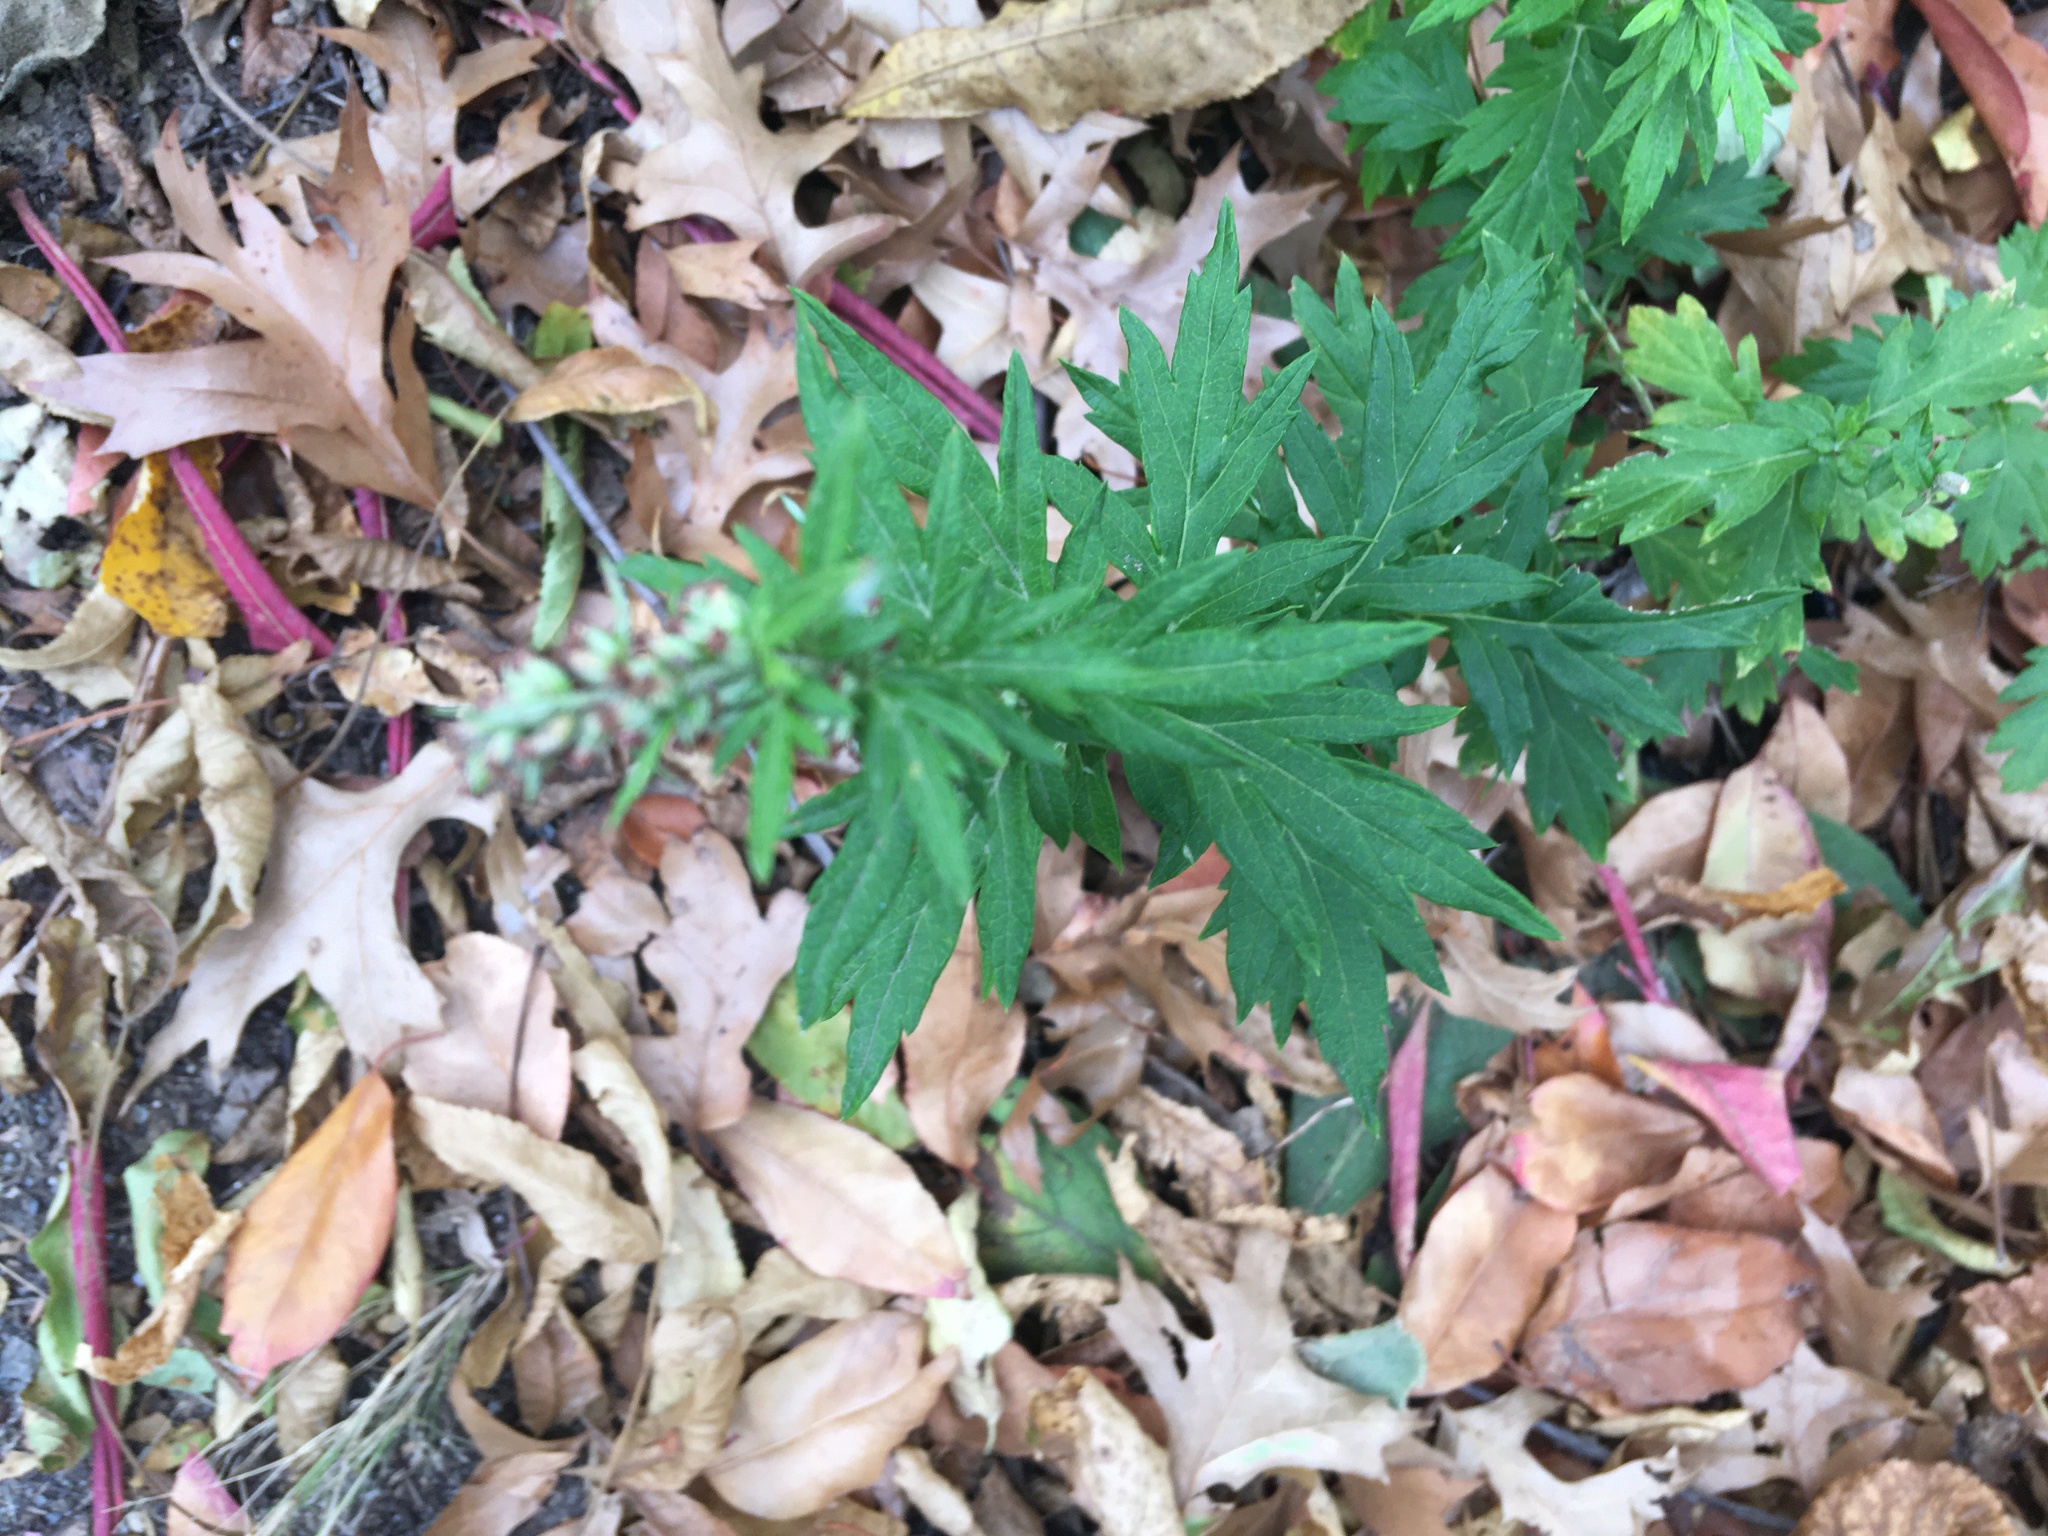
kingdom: Plantae
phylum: Tracheophyta
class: Magnoliopsida
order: Asterales
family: Asteraceae
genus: Artemisia
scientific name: Artemisia vulgaris
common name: Mugwort
